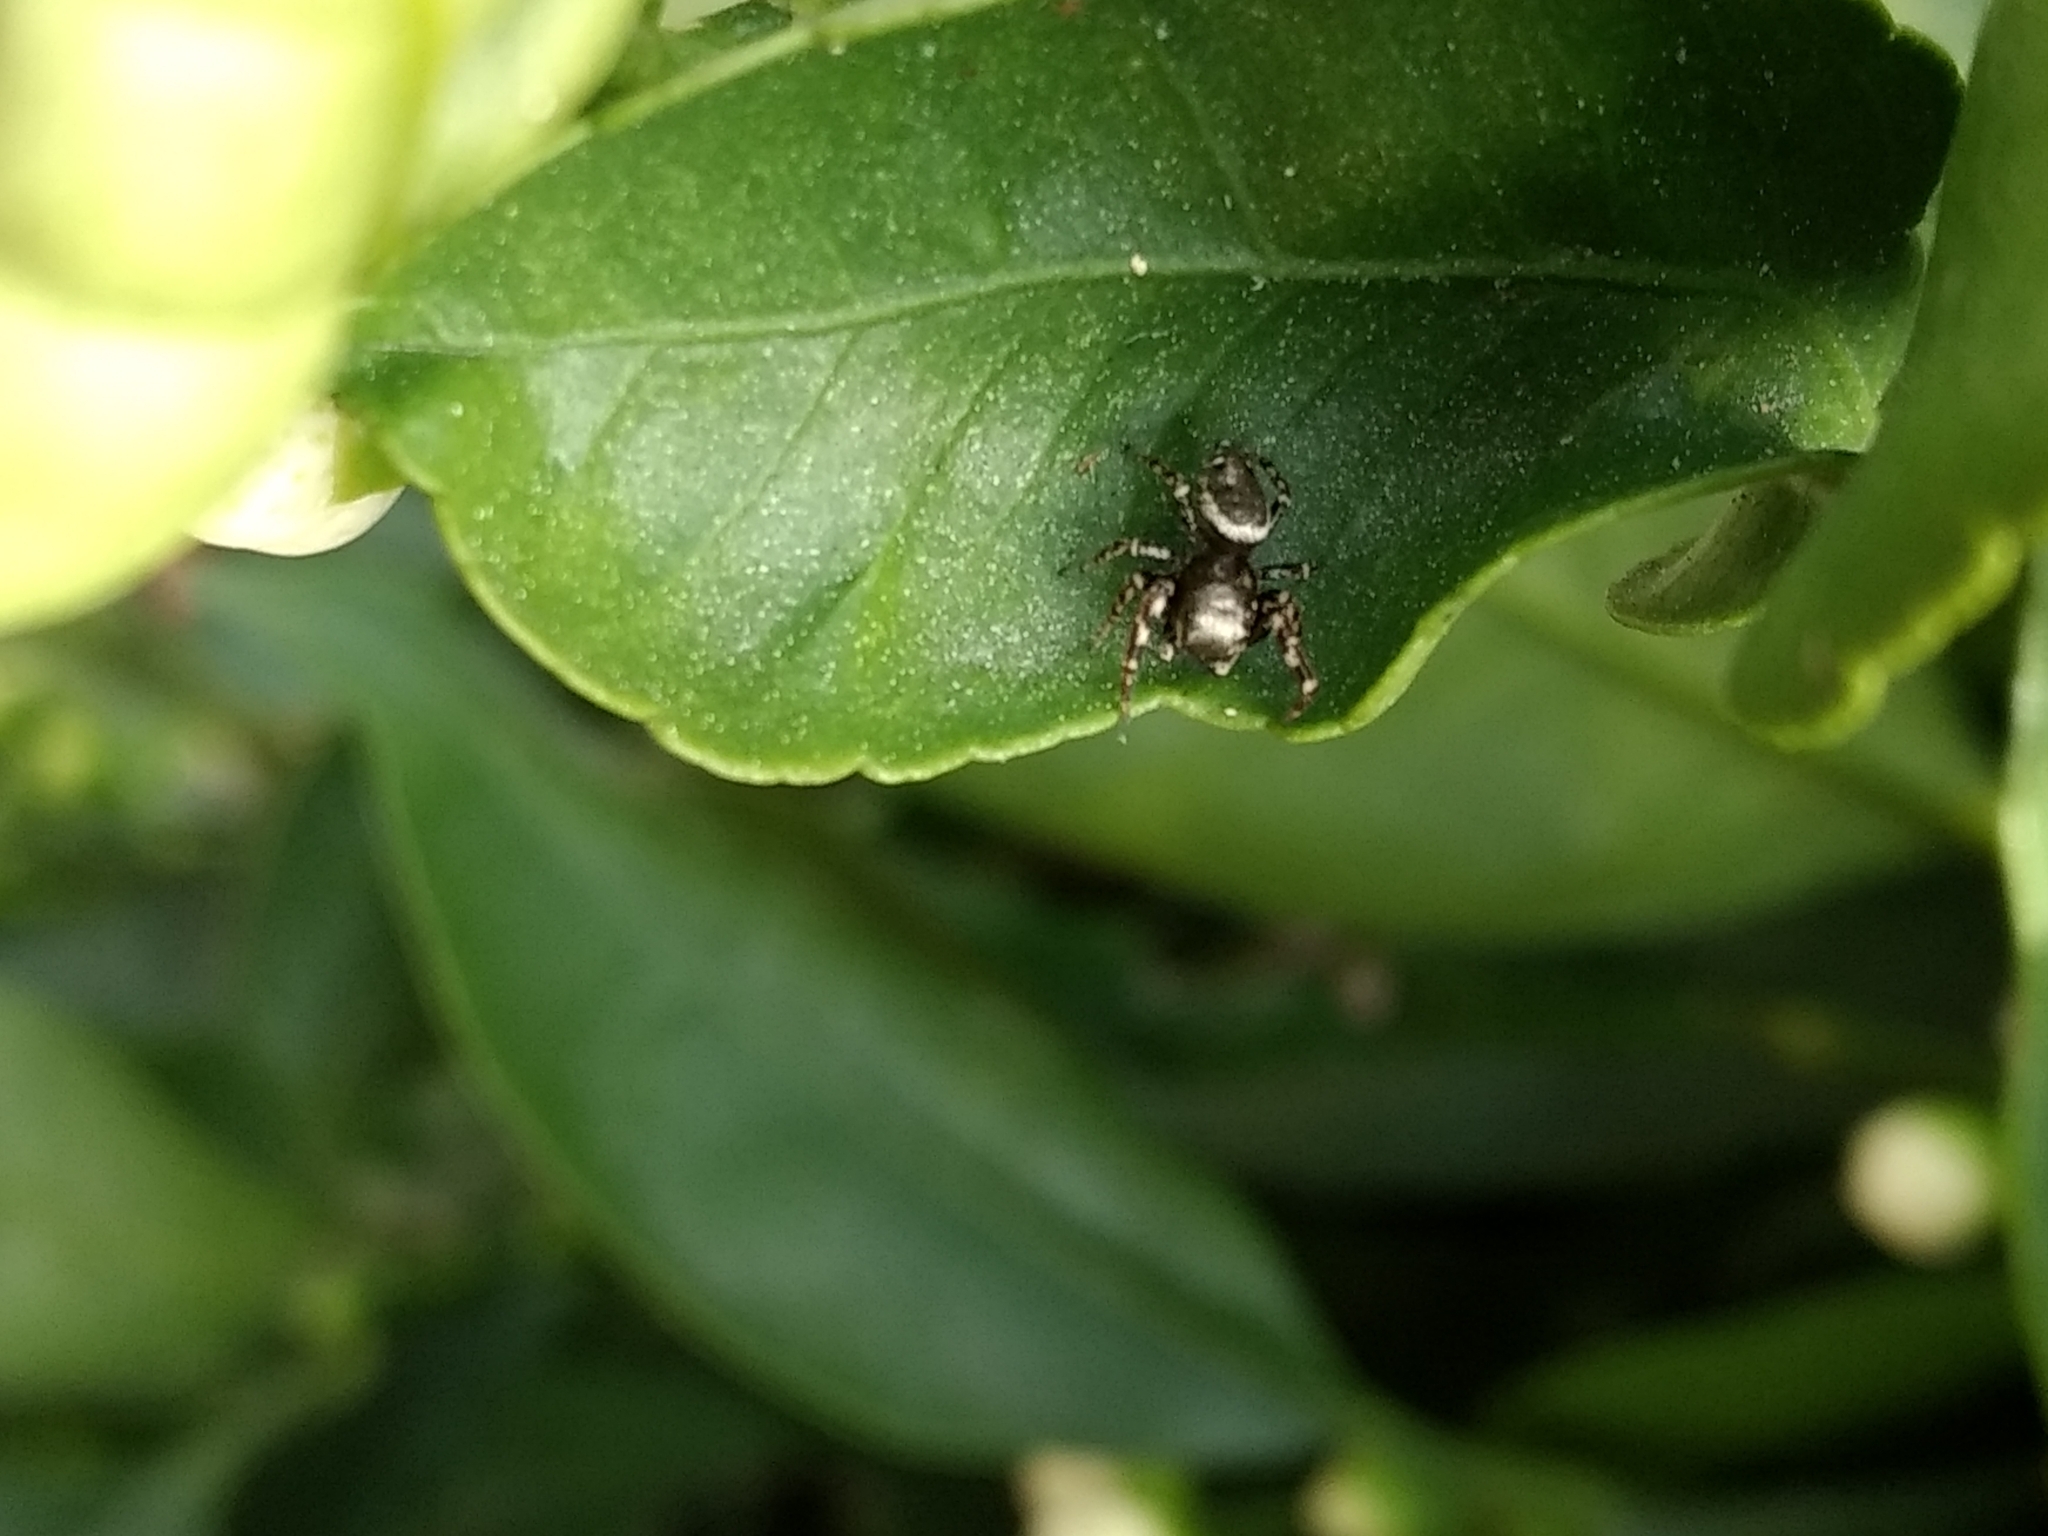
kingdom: Animalia
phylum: Arthropoda
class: Arachnida
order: Araneae
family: Salticidae
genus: Pelegrina
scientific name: Pelegrina aeneola
